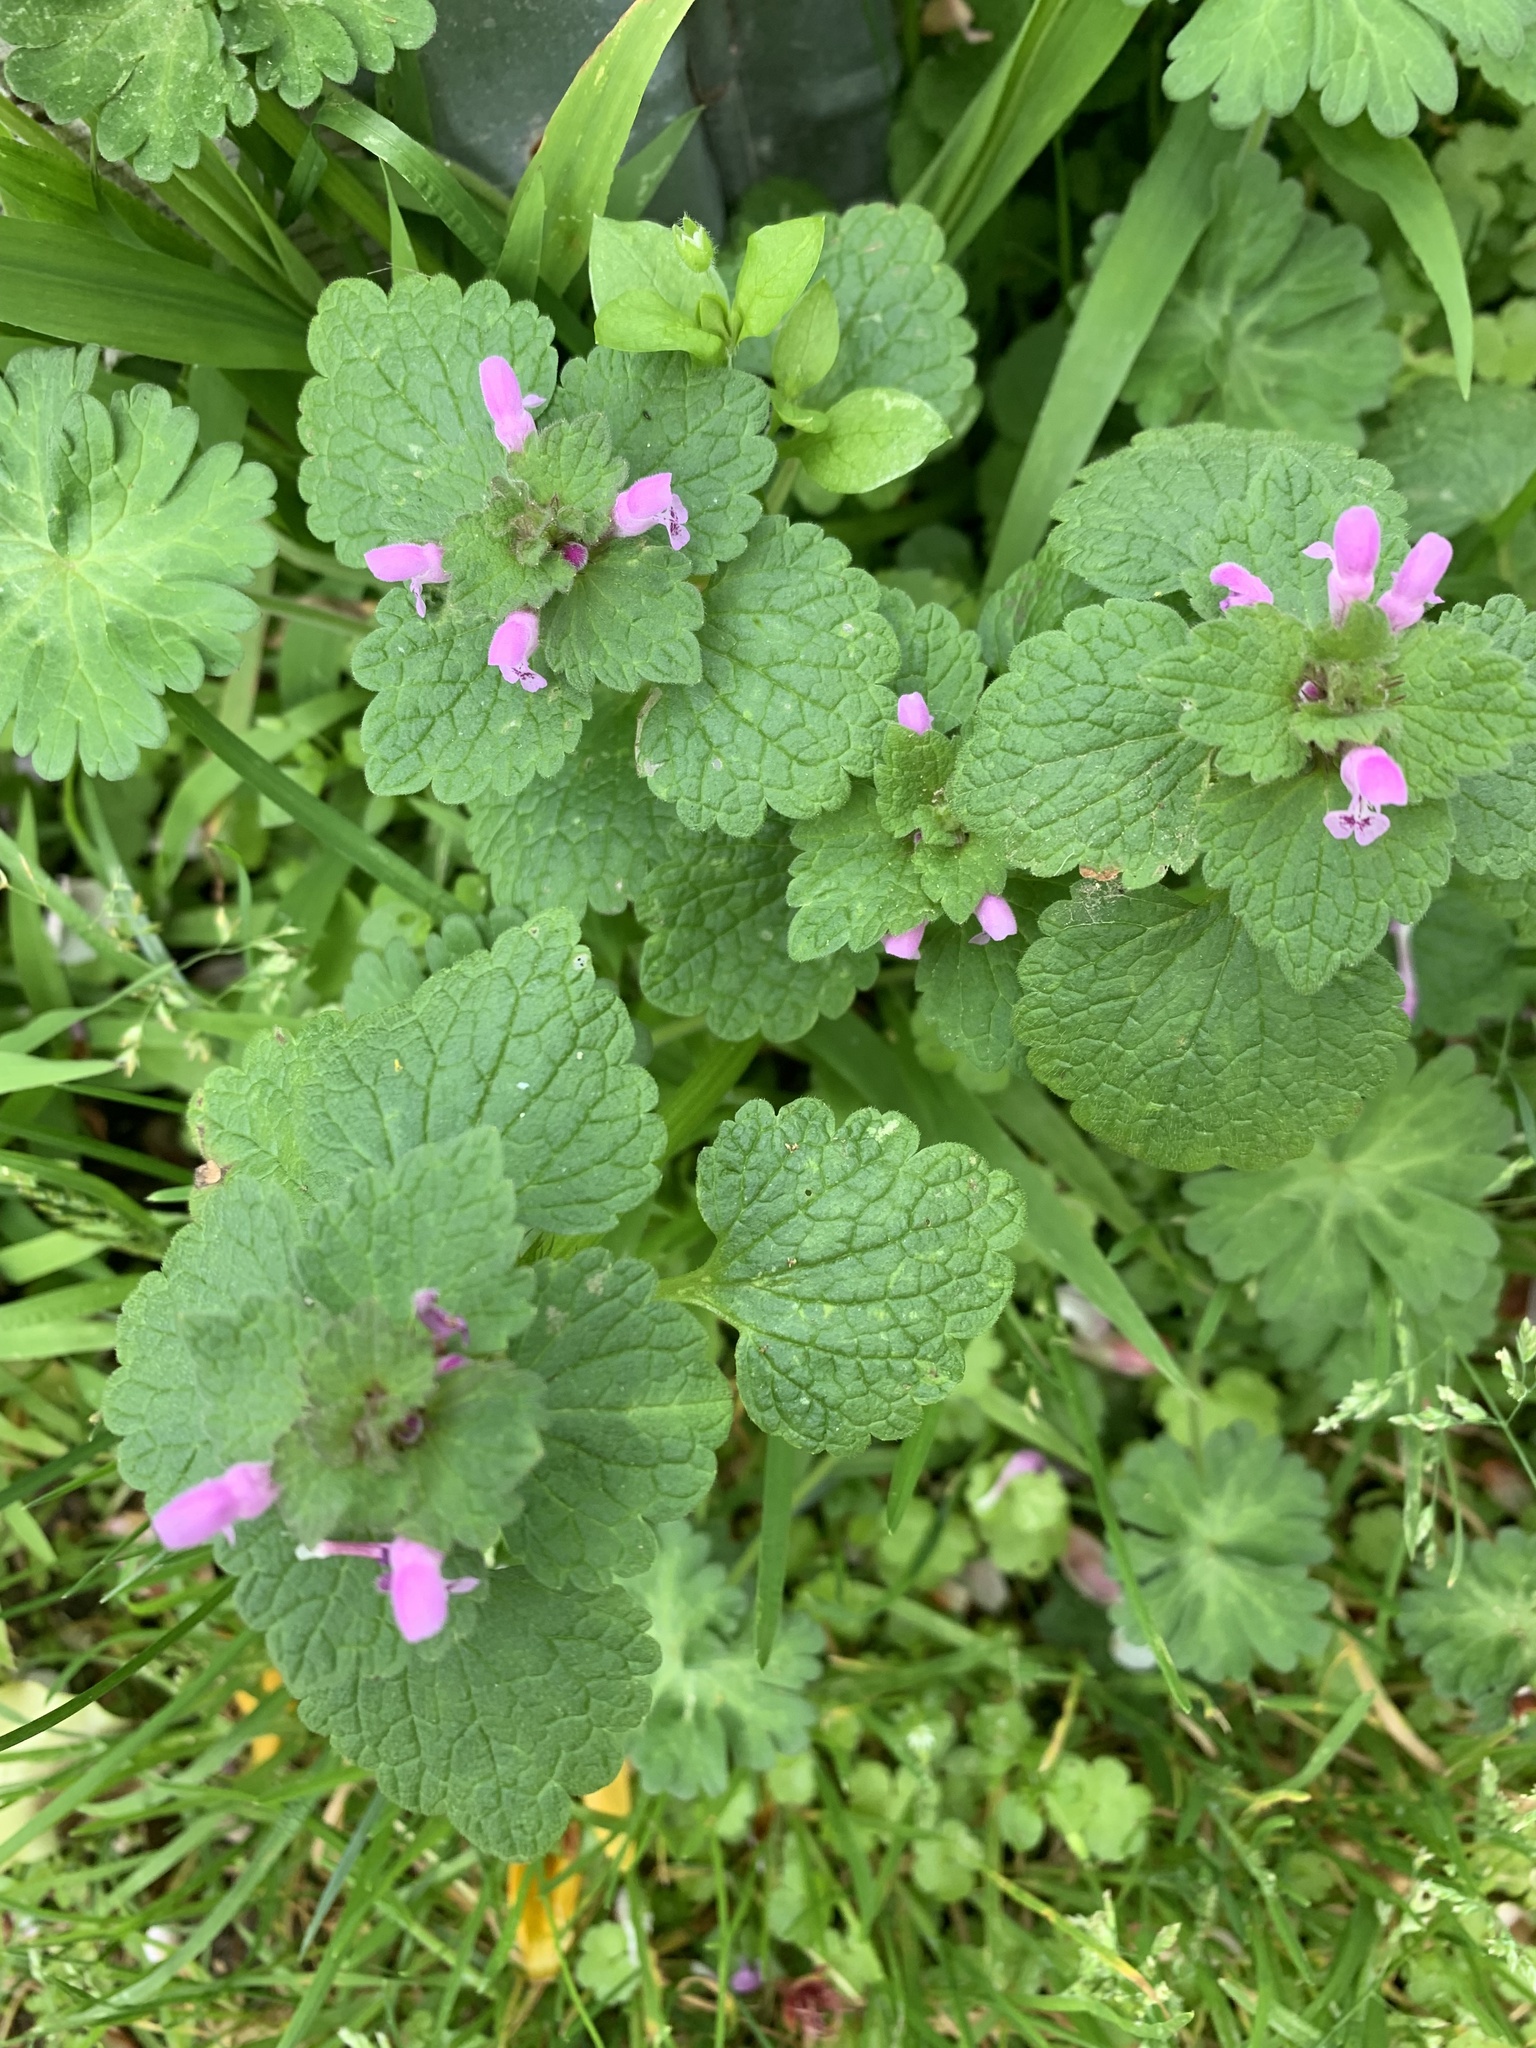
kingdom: Plantae
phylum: Tracheophyta
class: Magnoliopsida
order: Lamiales
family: Lamiaceae
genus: Lamium
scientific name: Lamium purpureum
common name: Red dead-nettle
